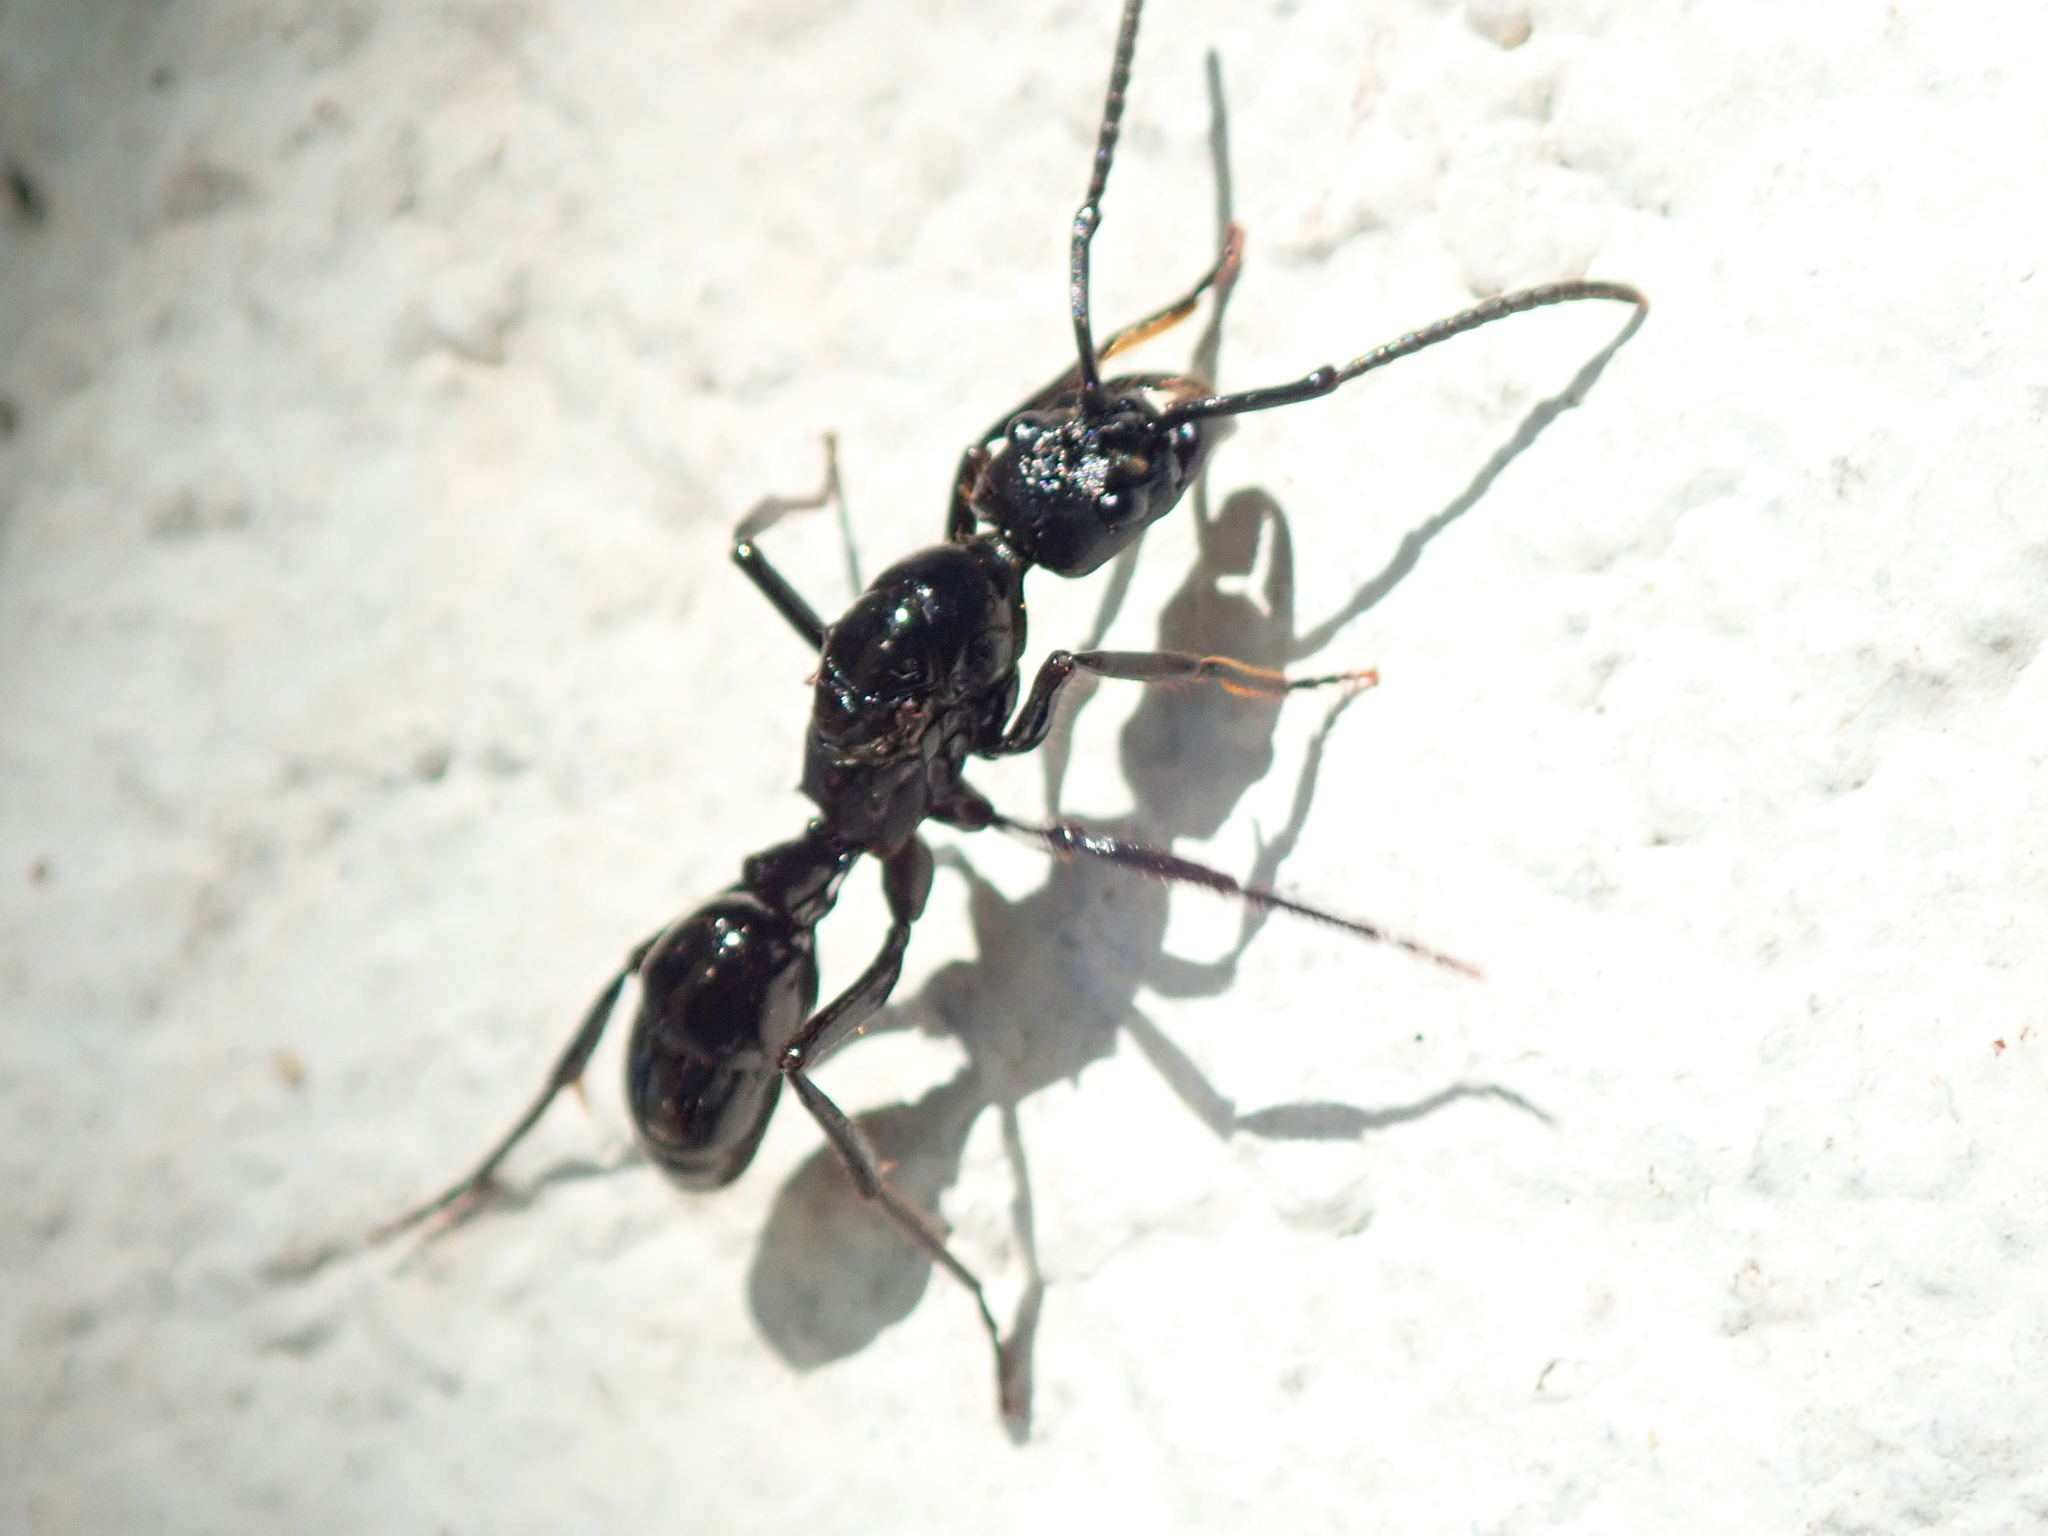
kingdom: Animalia
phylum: Arthropoda
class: Insecta
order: Hymenoptera
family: Formicidae
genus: Pachycondyla
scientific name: Pachycondyla commutata
